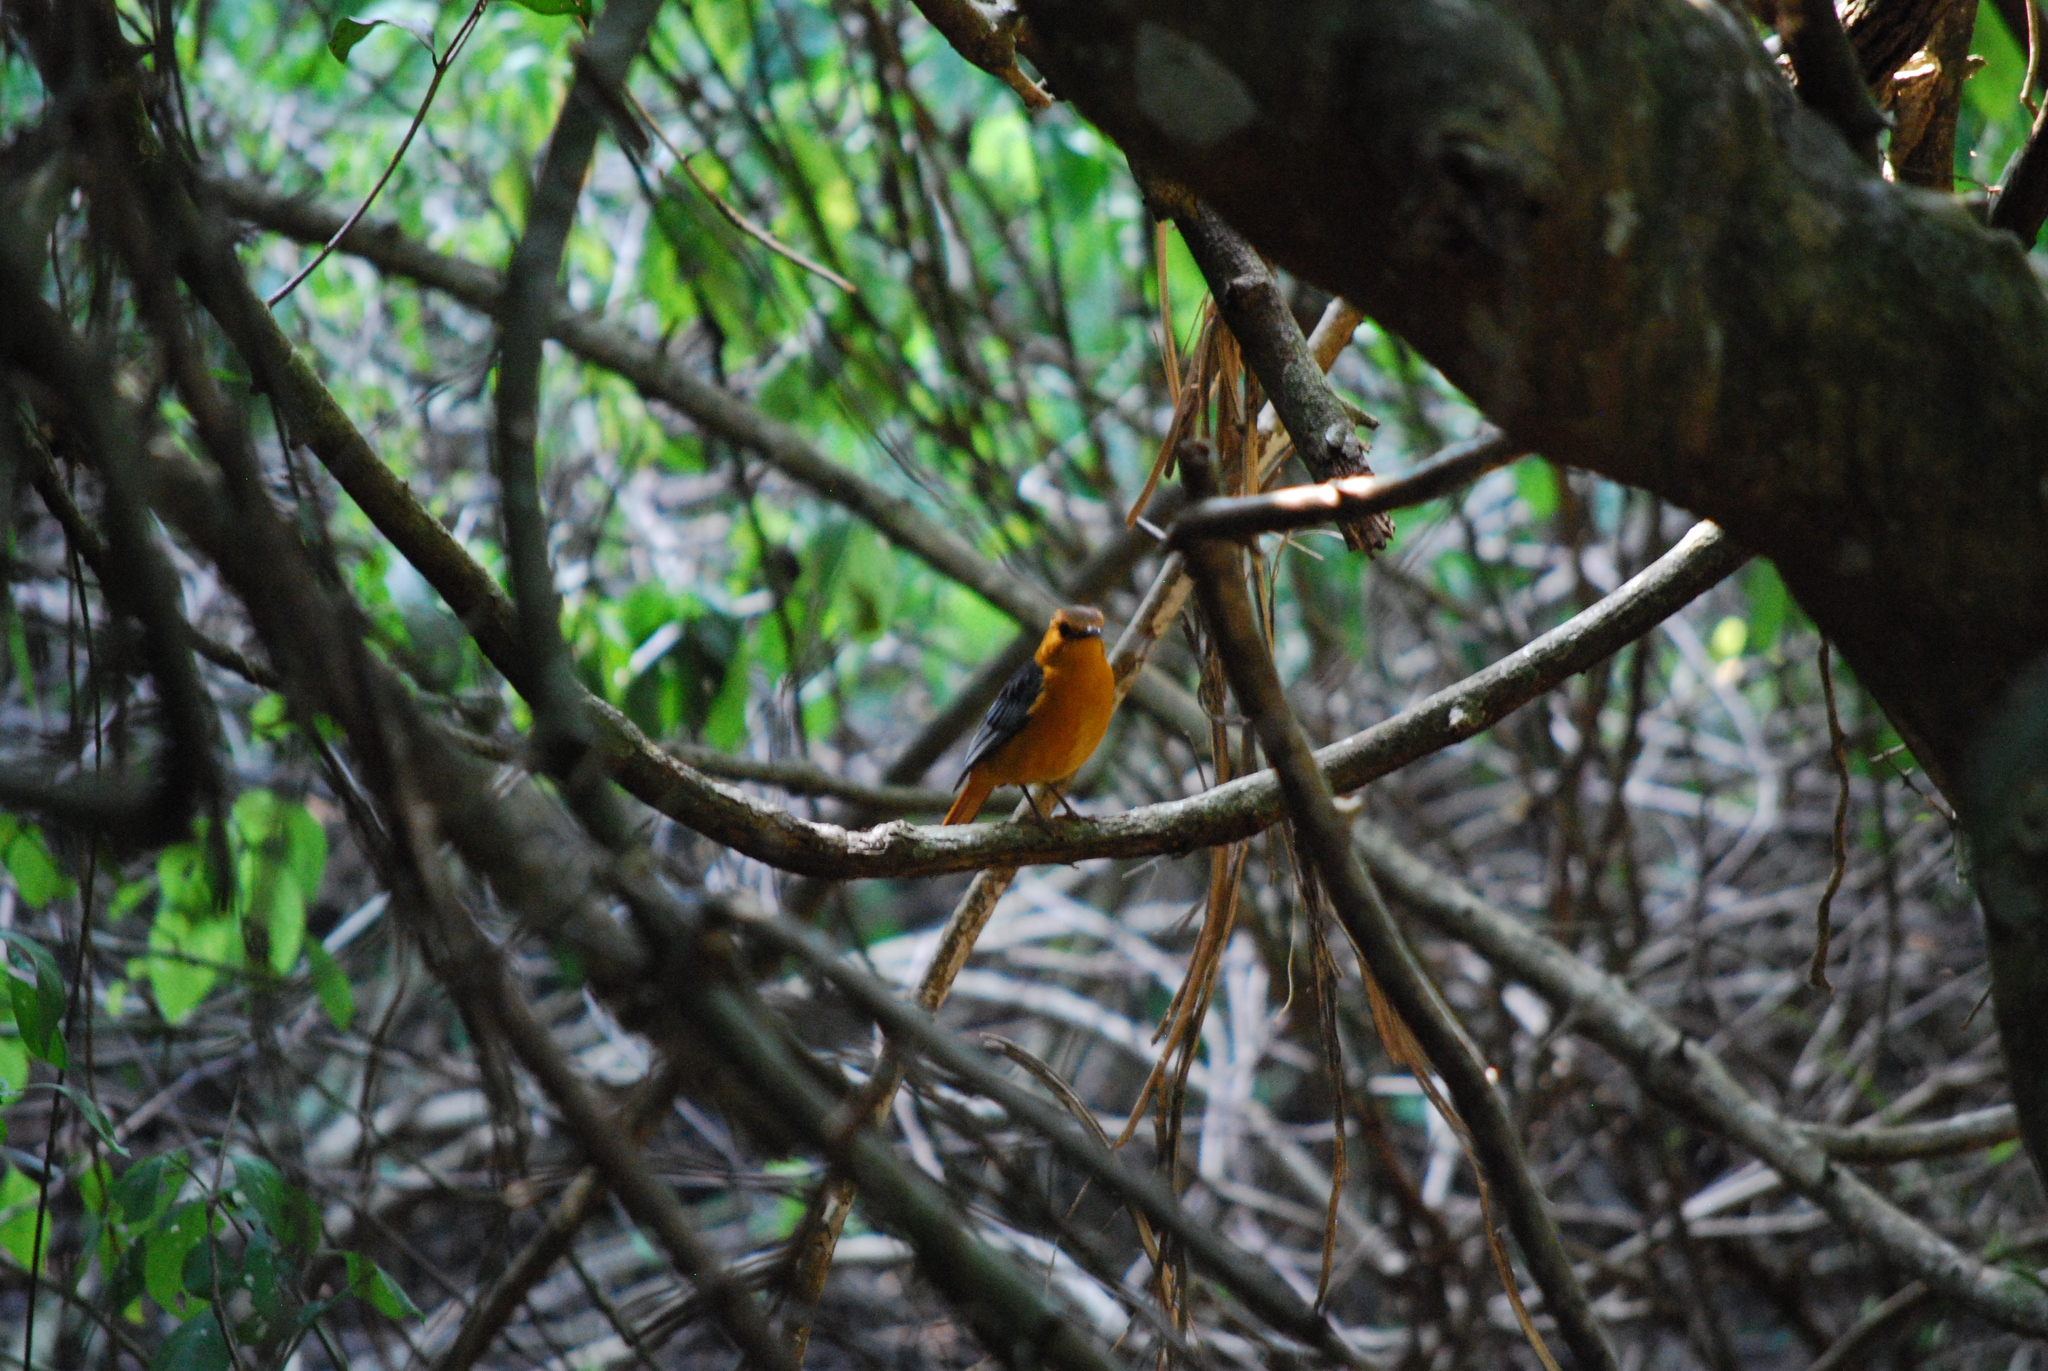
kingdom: Animalia
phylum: Chordata
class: Aves
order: Passeriformes
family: Muscicapidae
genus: Cossypha
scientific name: Cossypha natalensis
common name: Red-capped robin-chat
